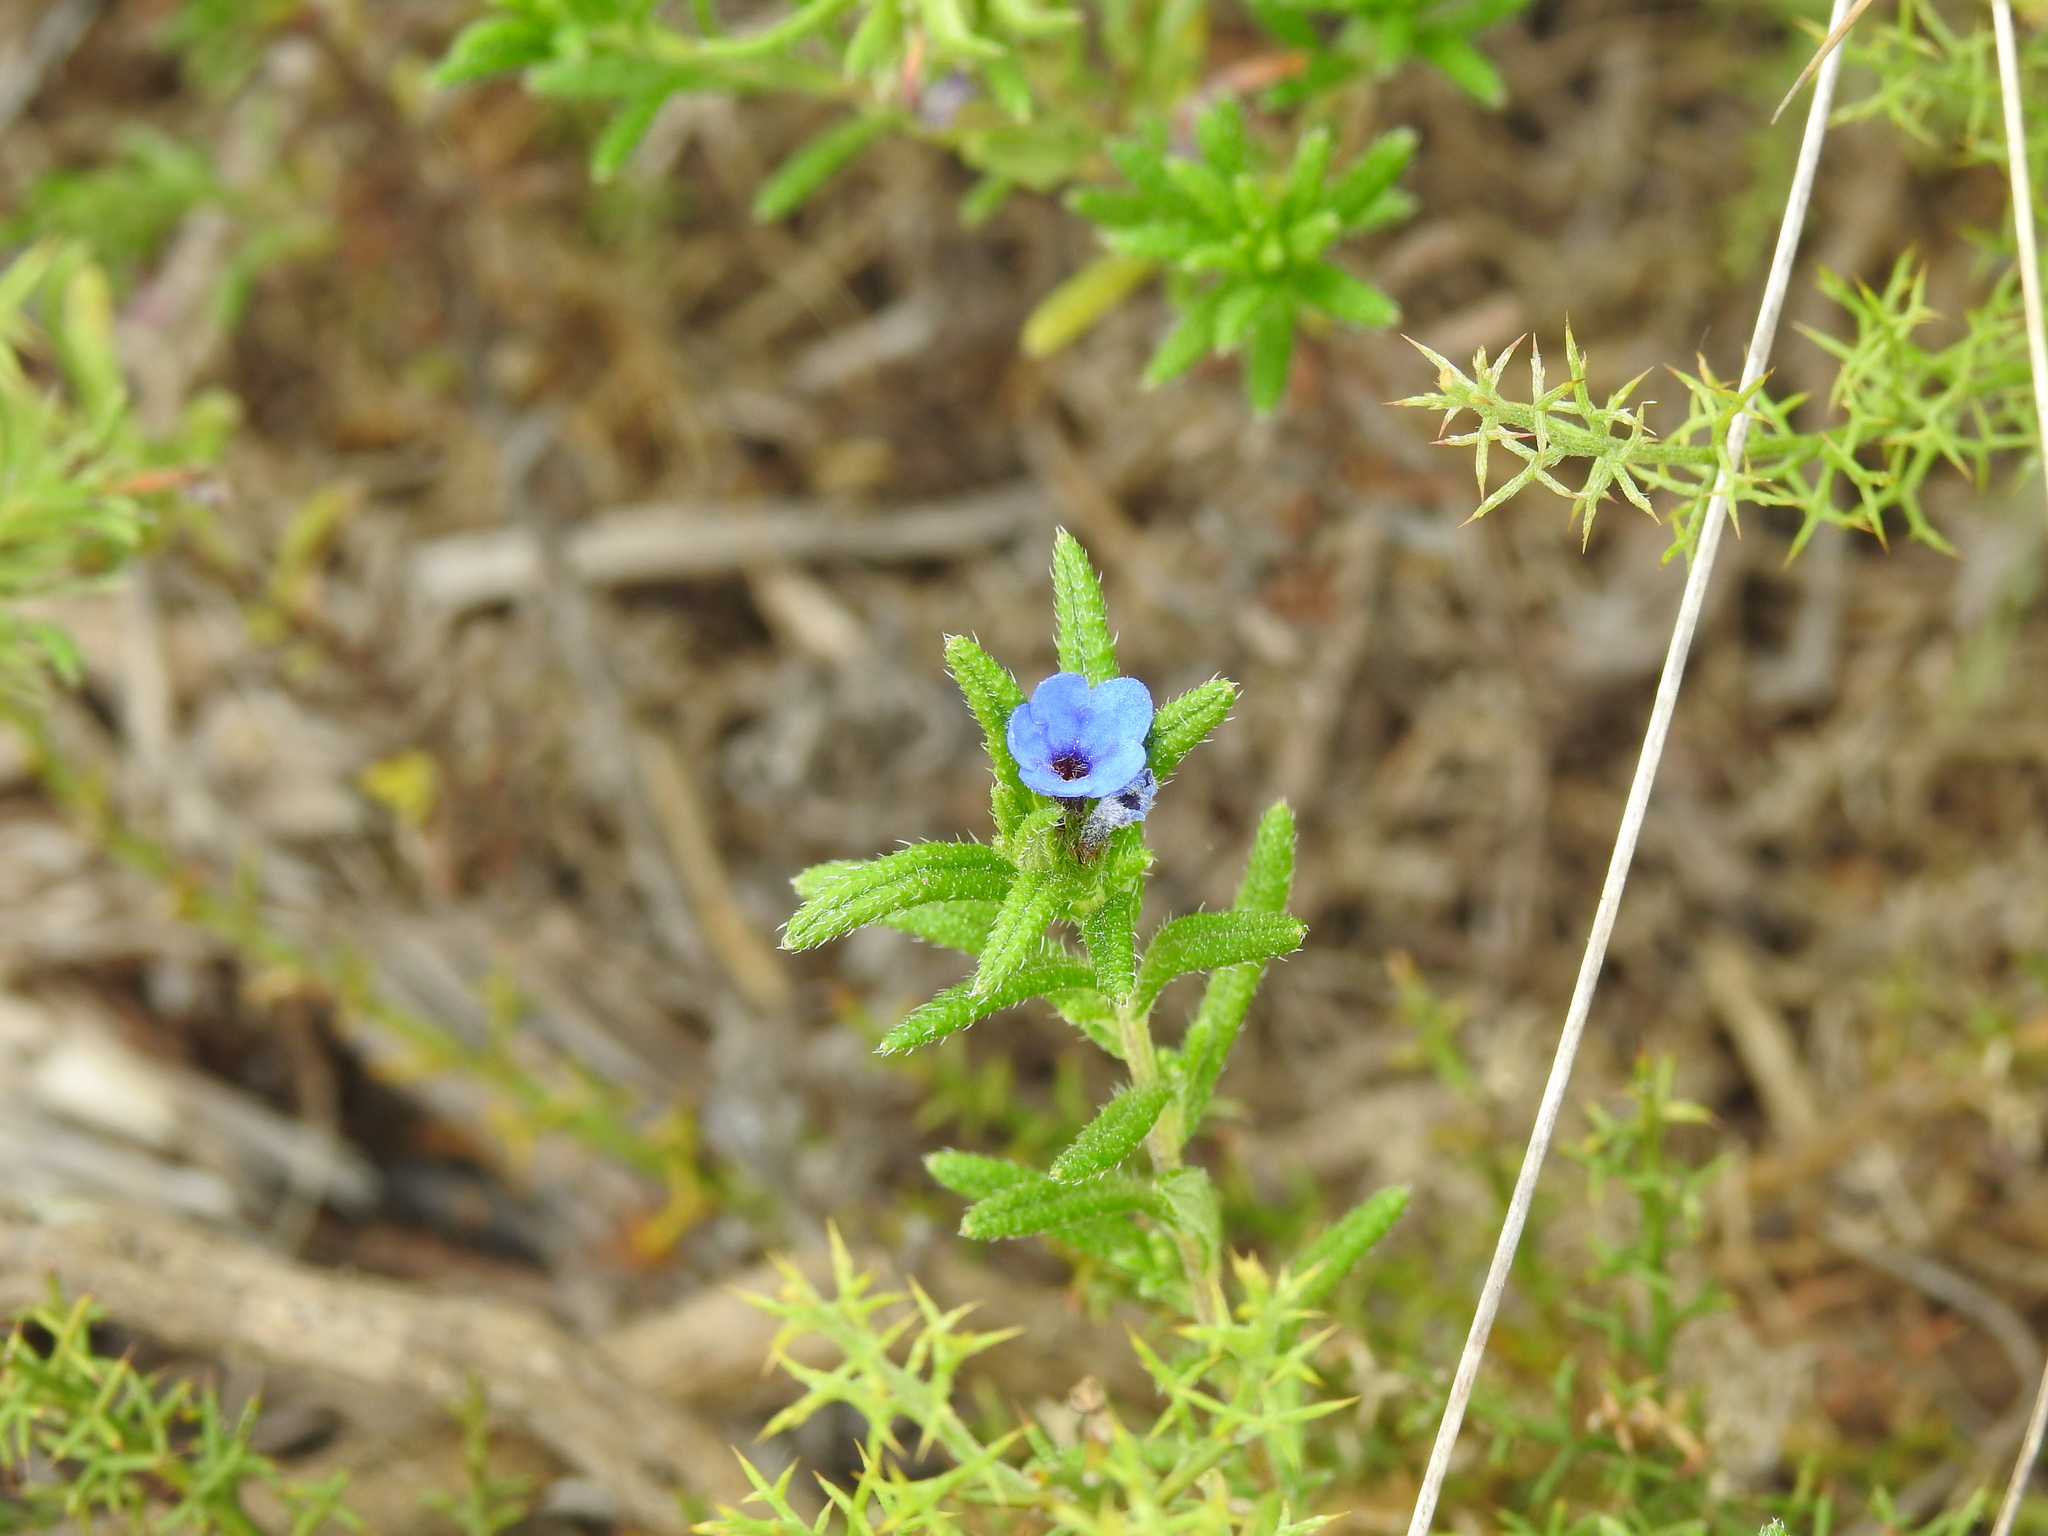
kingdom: Plantae
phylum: Tracheophyta
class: Magnoliopsida
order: Boraginales
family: Boraginaceae
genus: Glandora
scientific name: Glandora prostrata
